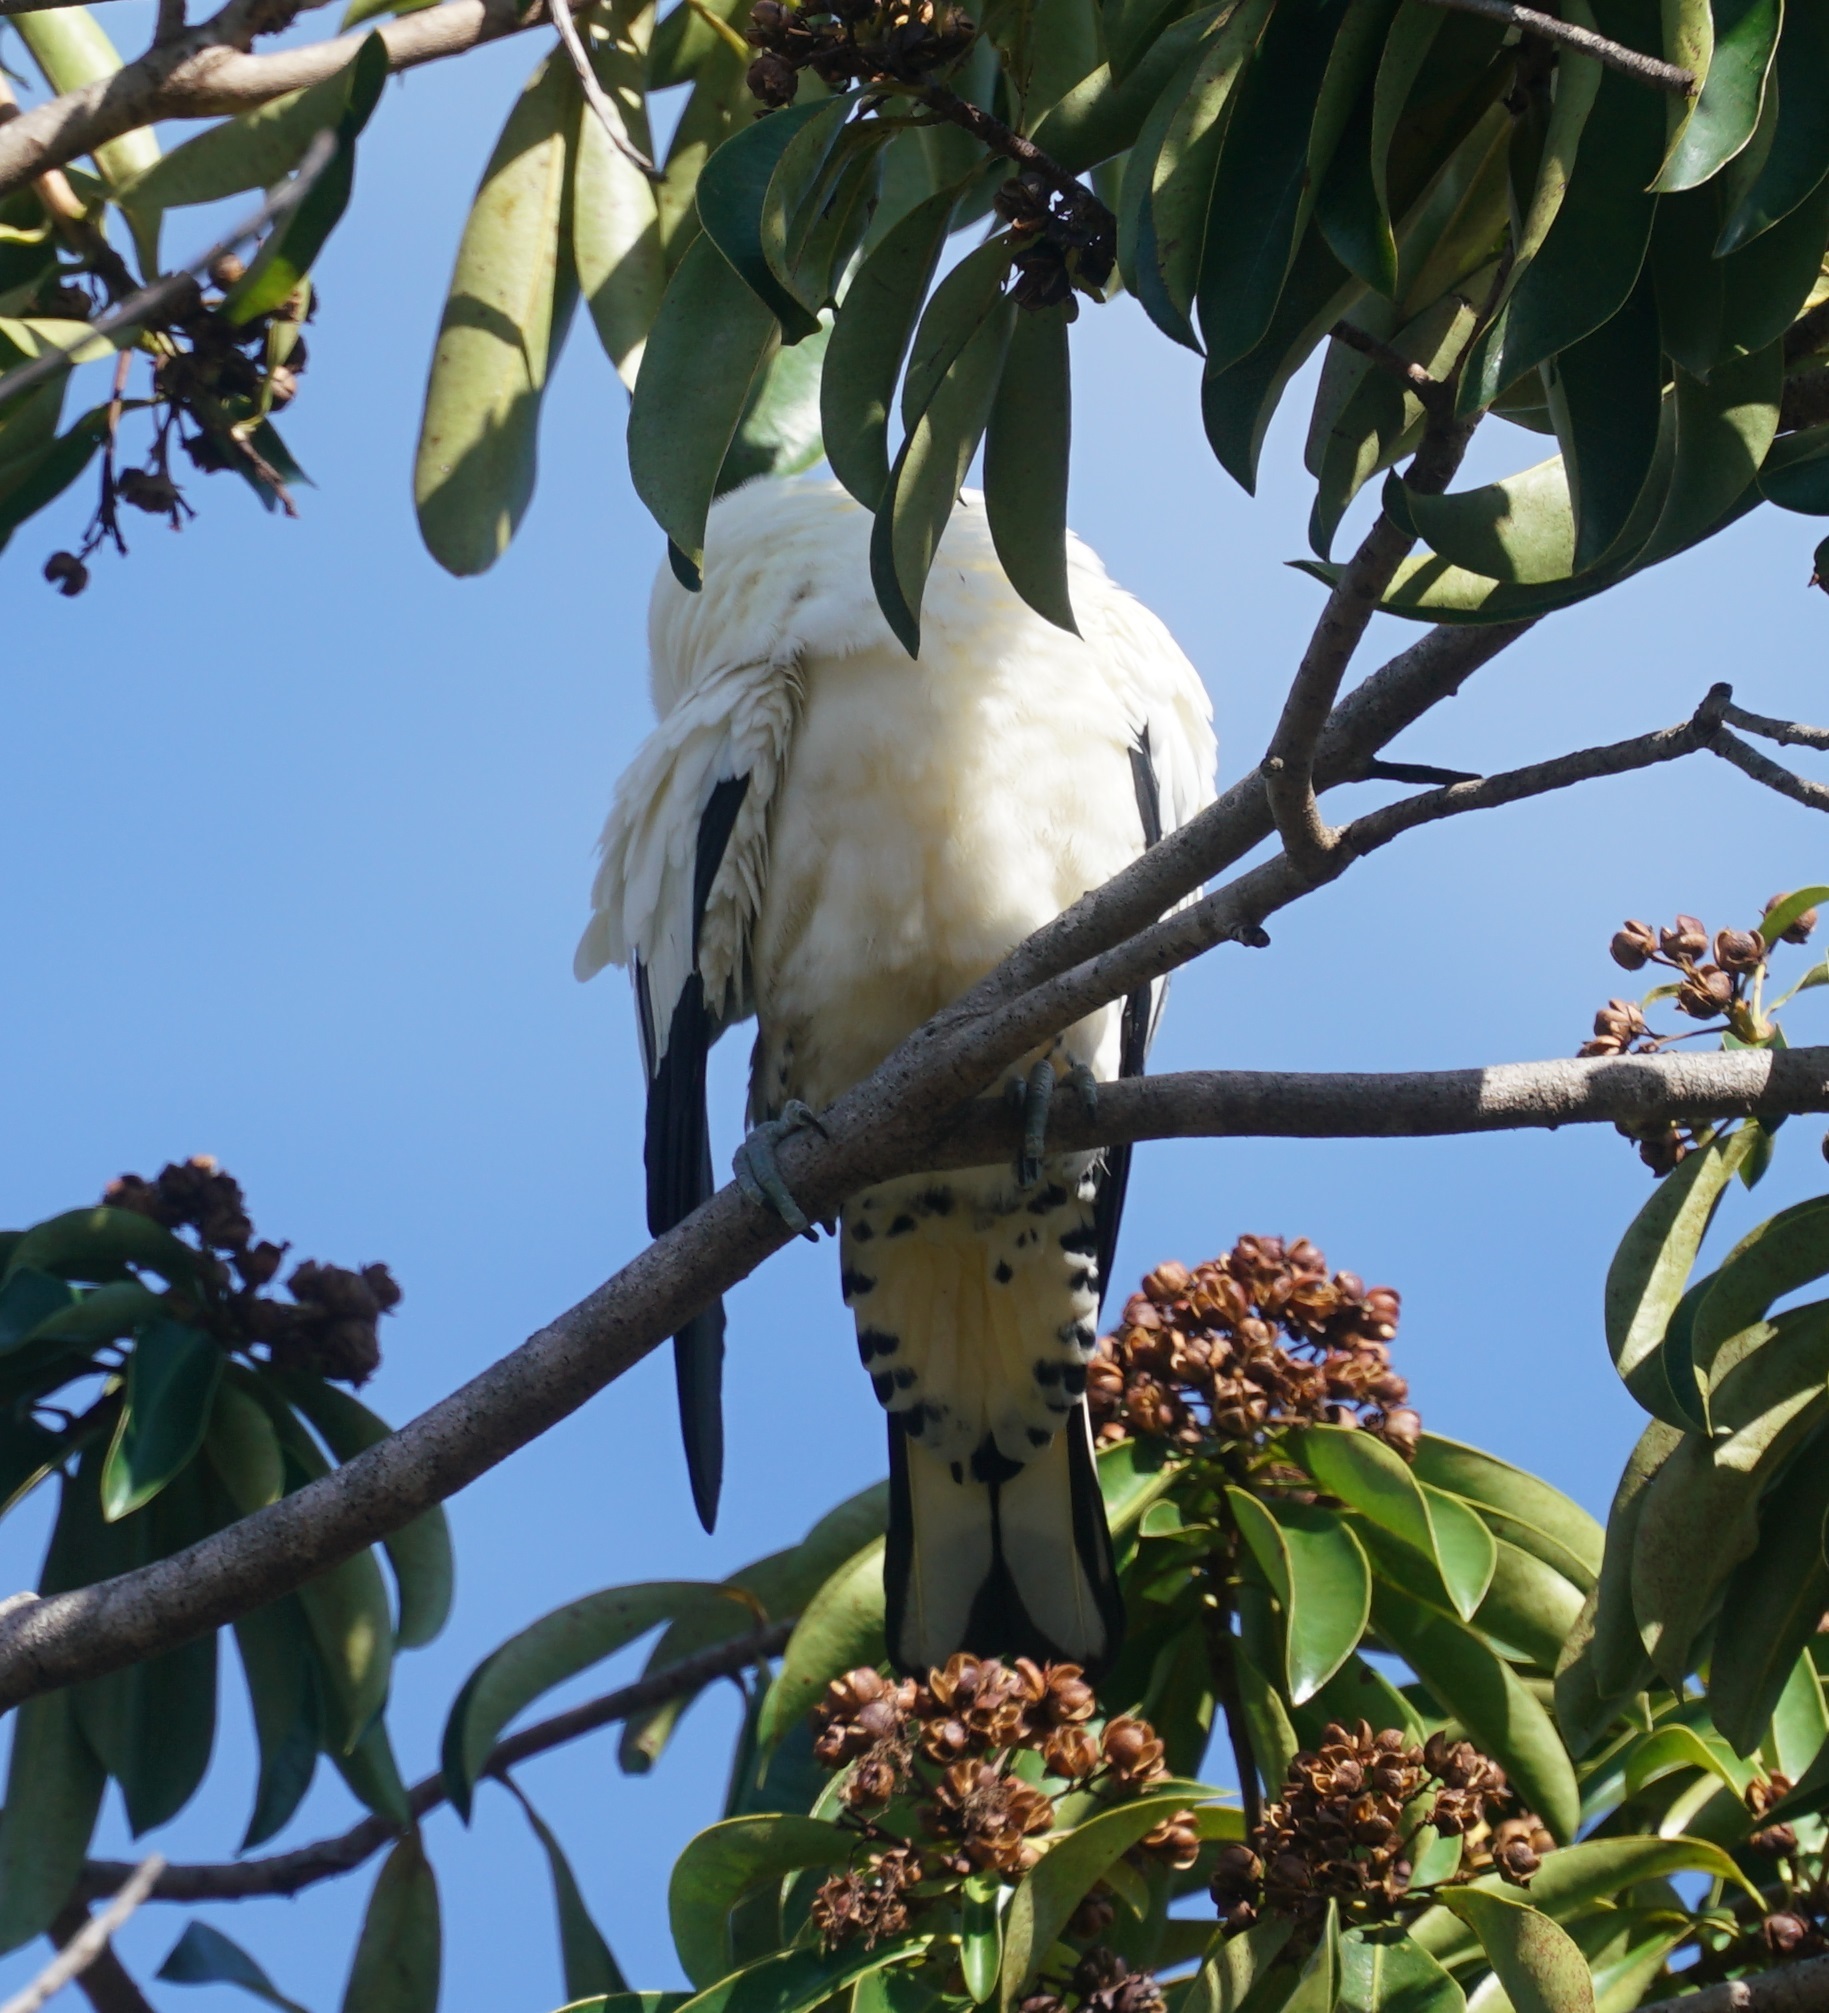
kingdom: Animalia
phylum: Chordata
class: Aves
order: Columbiformes
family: Columbidae
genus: Ducula
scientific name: Ducula spilorrhoa
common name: Torresian imperial pigeon
